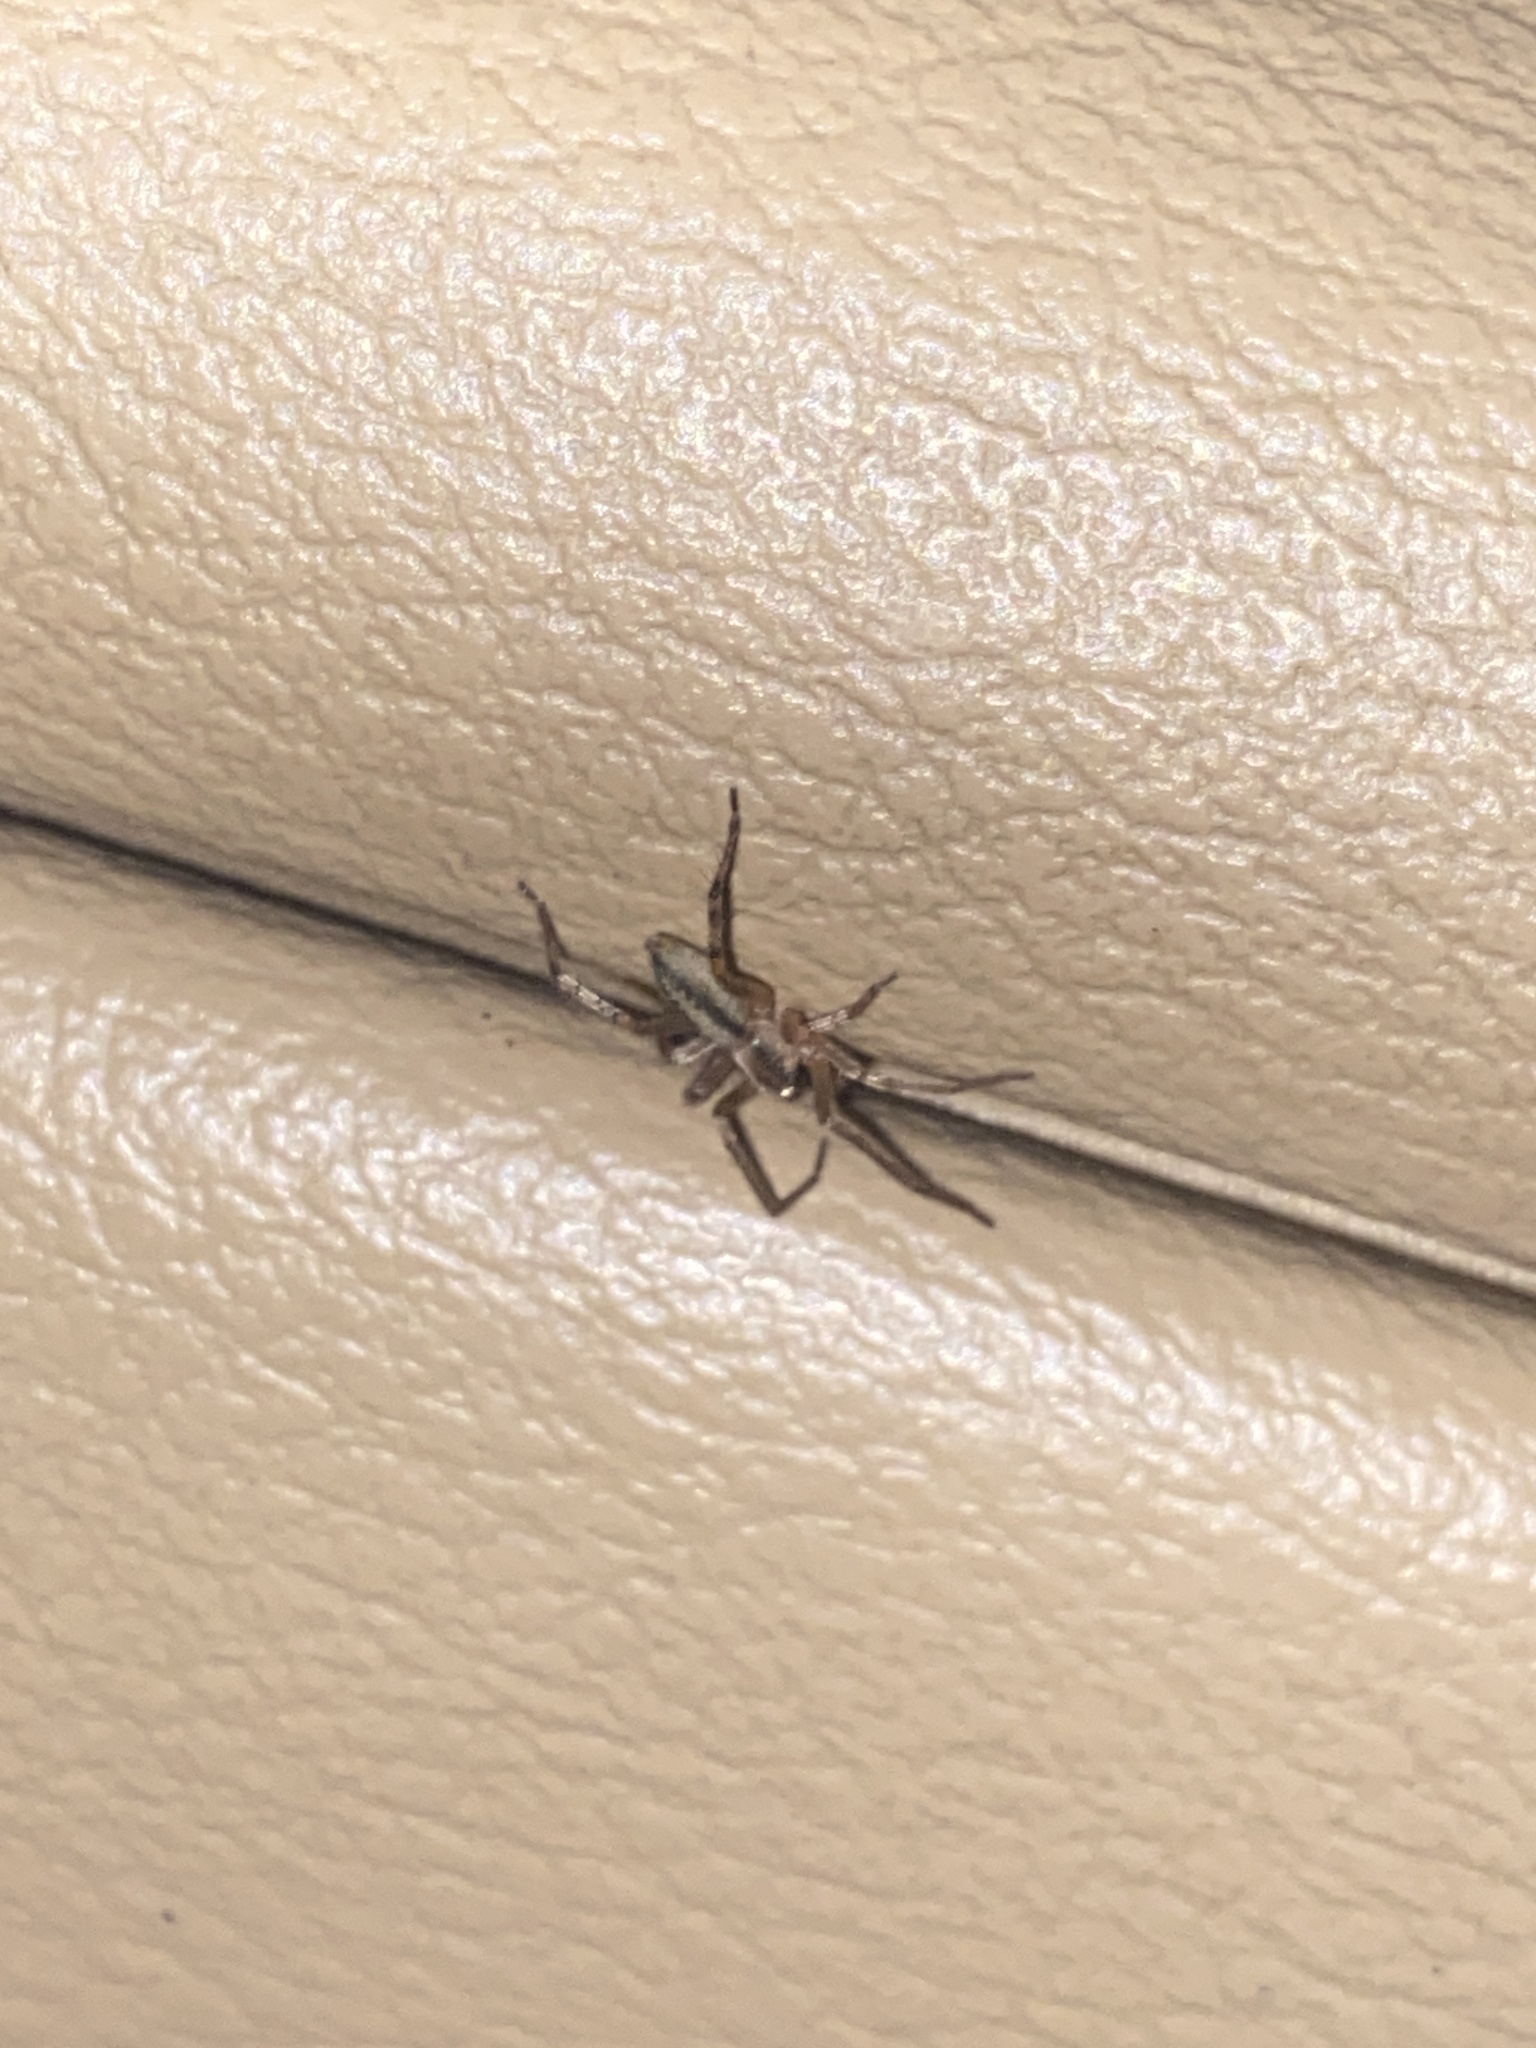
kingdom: Animalia
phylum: Arthropoda
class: Arachnida
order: Araneae
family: Anyphaenidae
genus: Hibana
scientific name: Hibana gracilis
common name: Garden ghost spider
